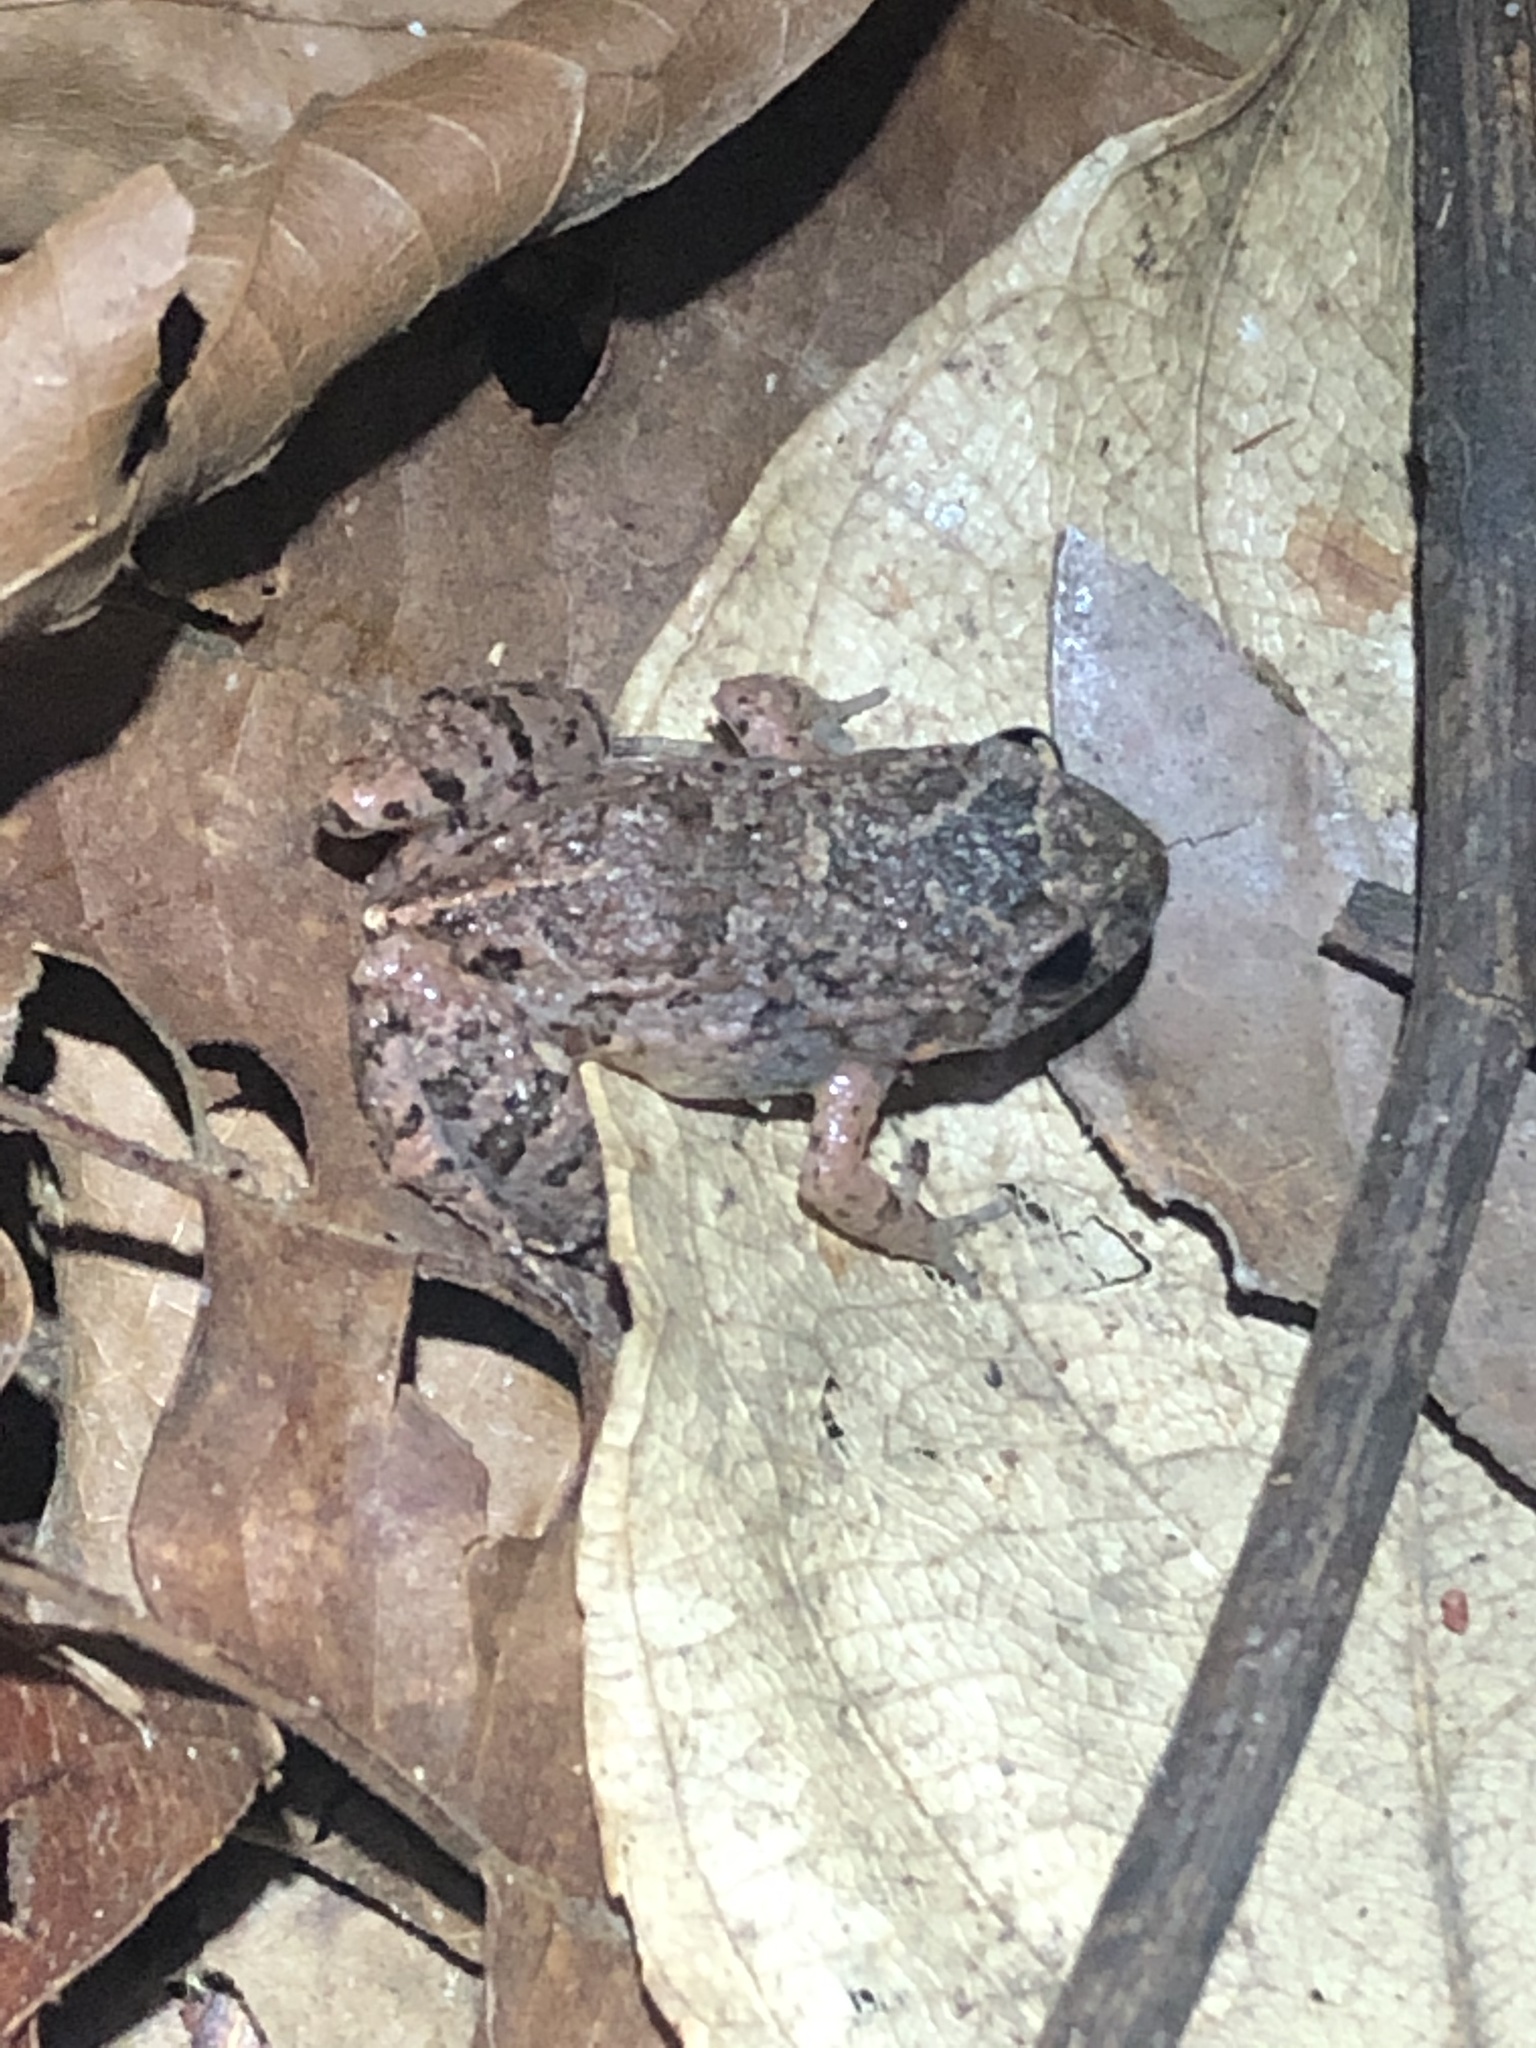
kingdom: Animalia
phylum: Chordata
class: Amphibia
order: Anura
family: Leptodactylidae
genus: Adenomera
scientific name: Adenomera andreae
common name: Lowland tropical bullfrog
